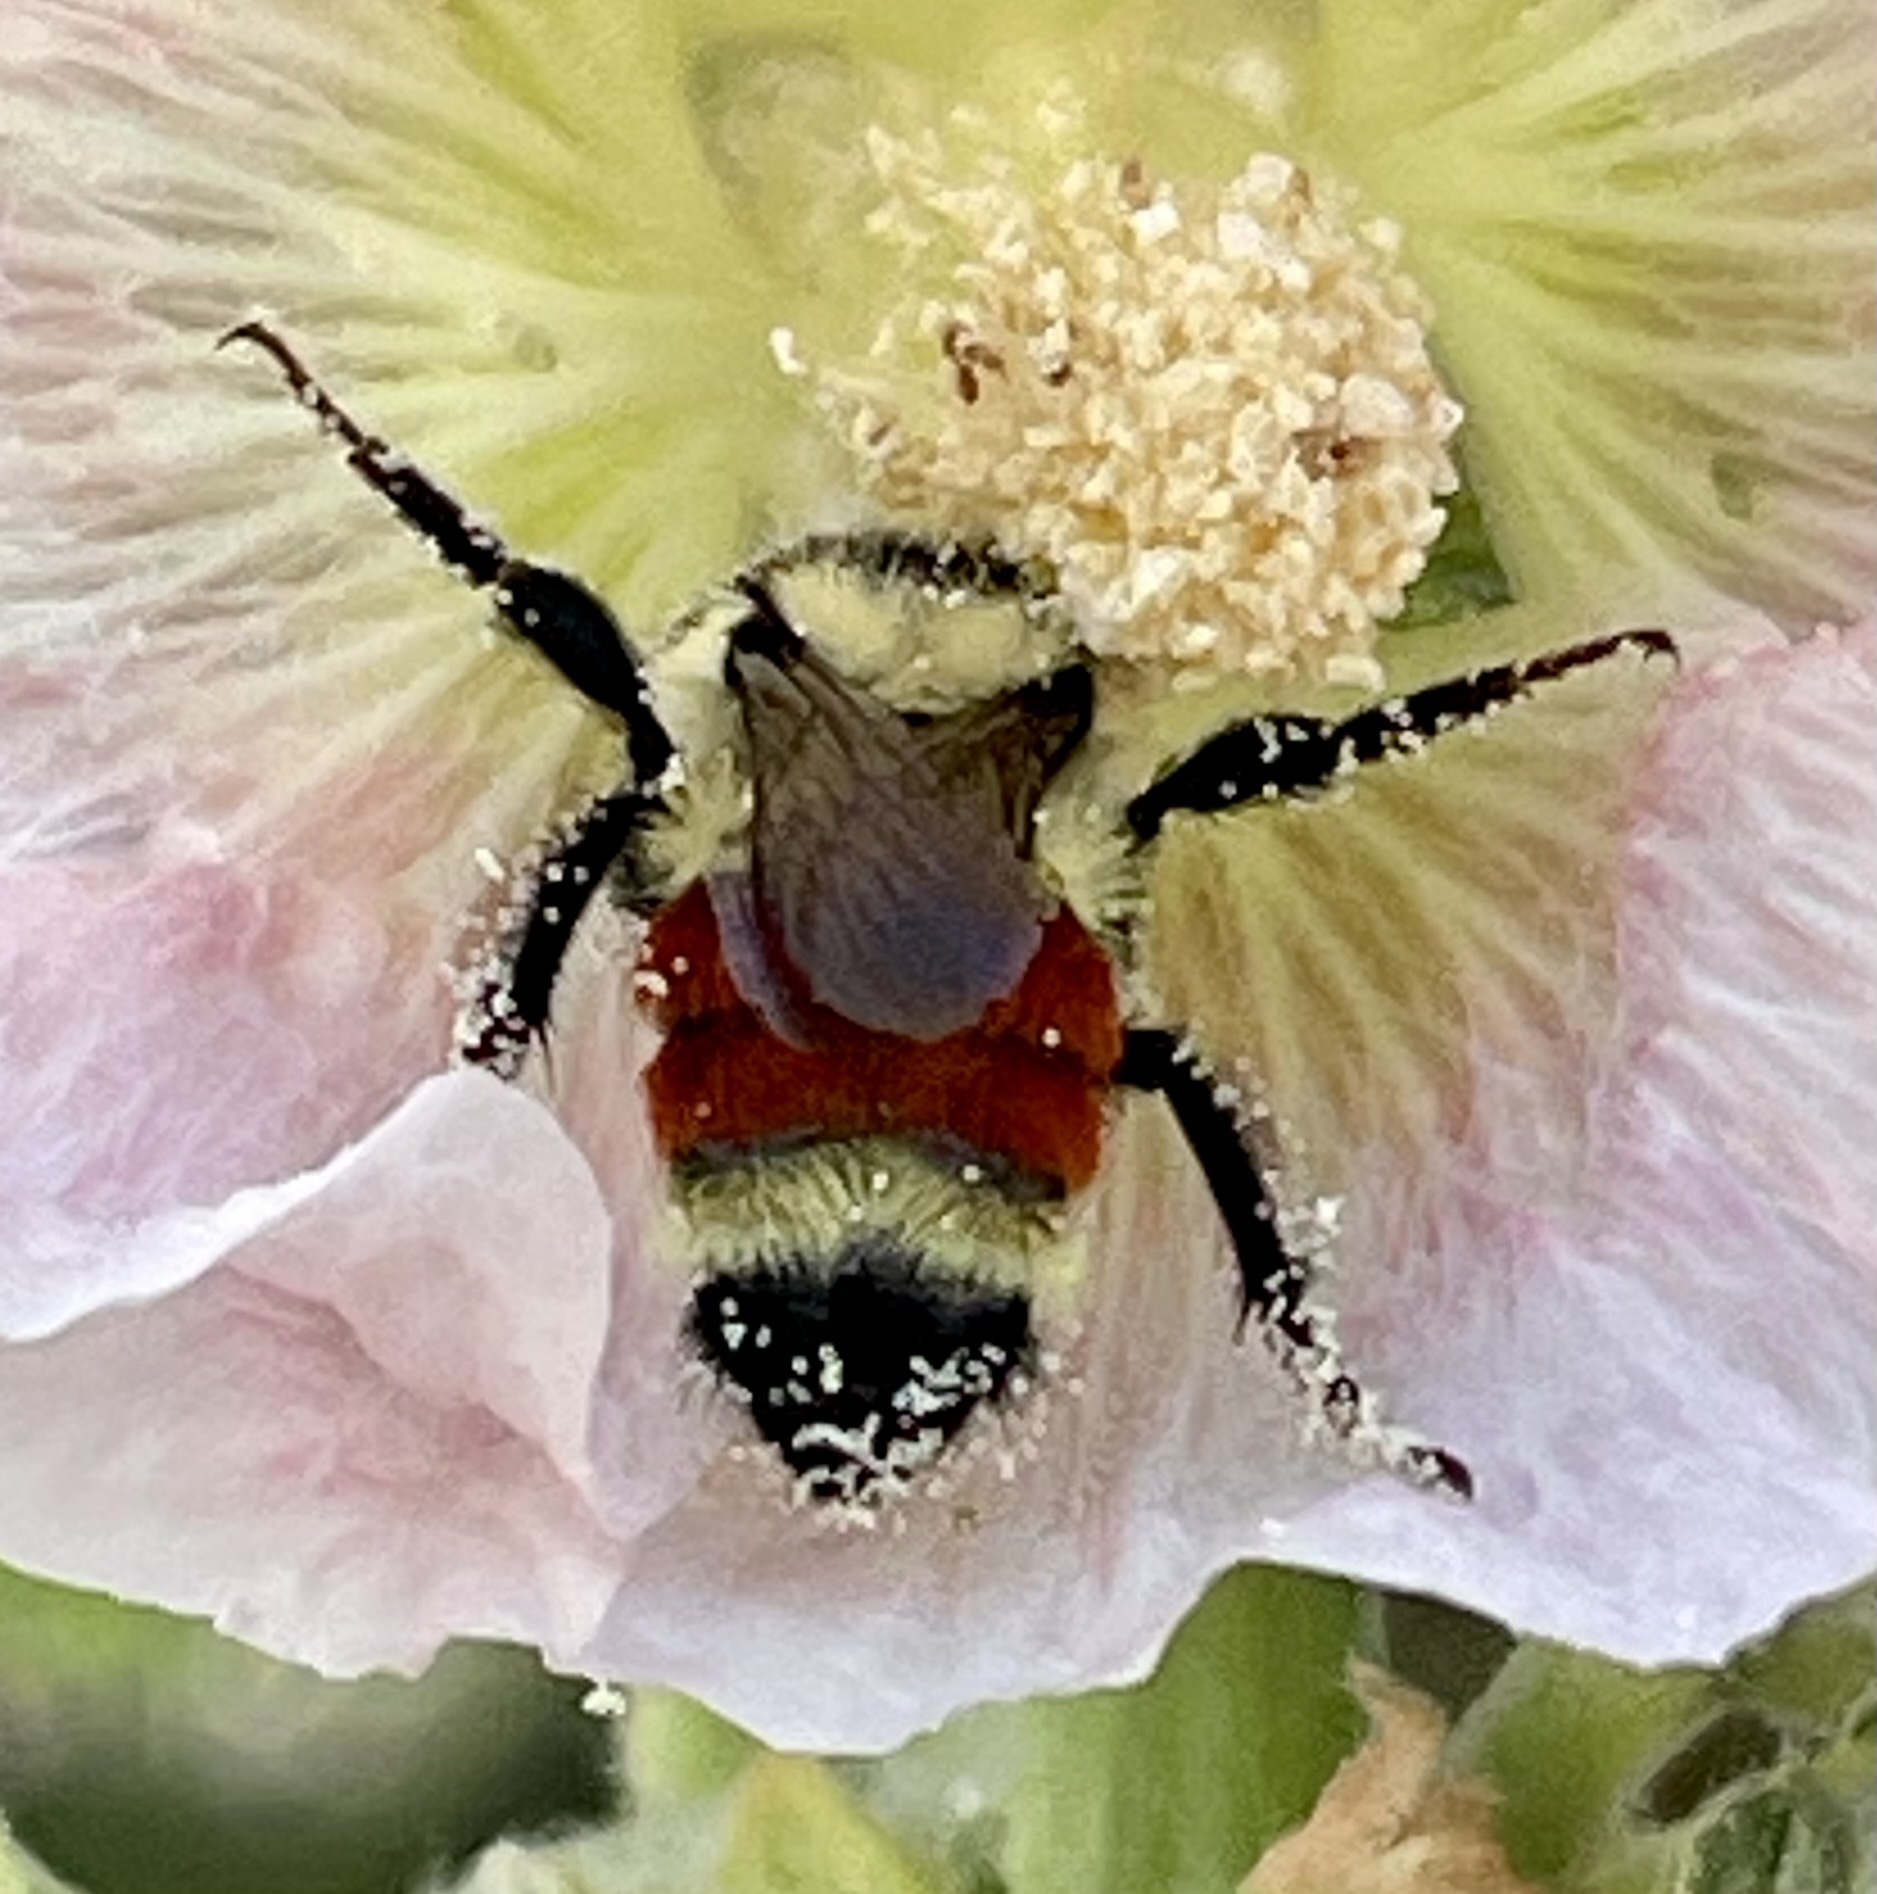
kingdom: Animalia
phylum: Arthropoda
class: Insecta
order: Hymenoptera
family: Apidae
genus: Bombus
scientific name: Bombus huntii
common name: Hunt bumble bee
